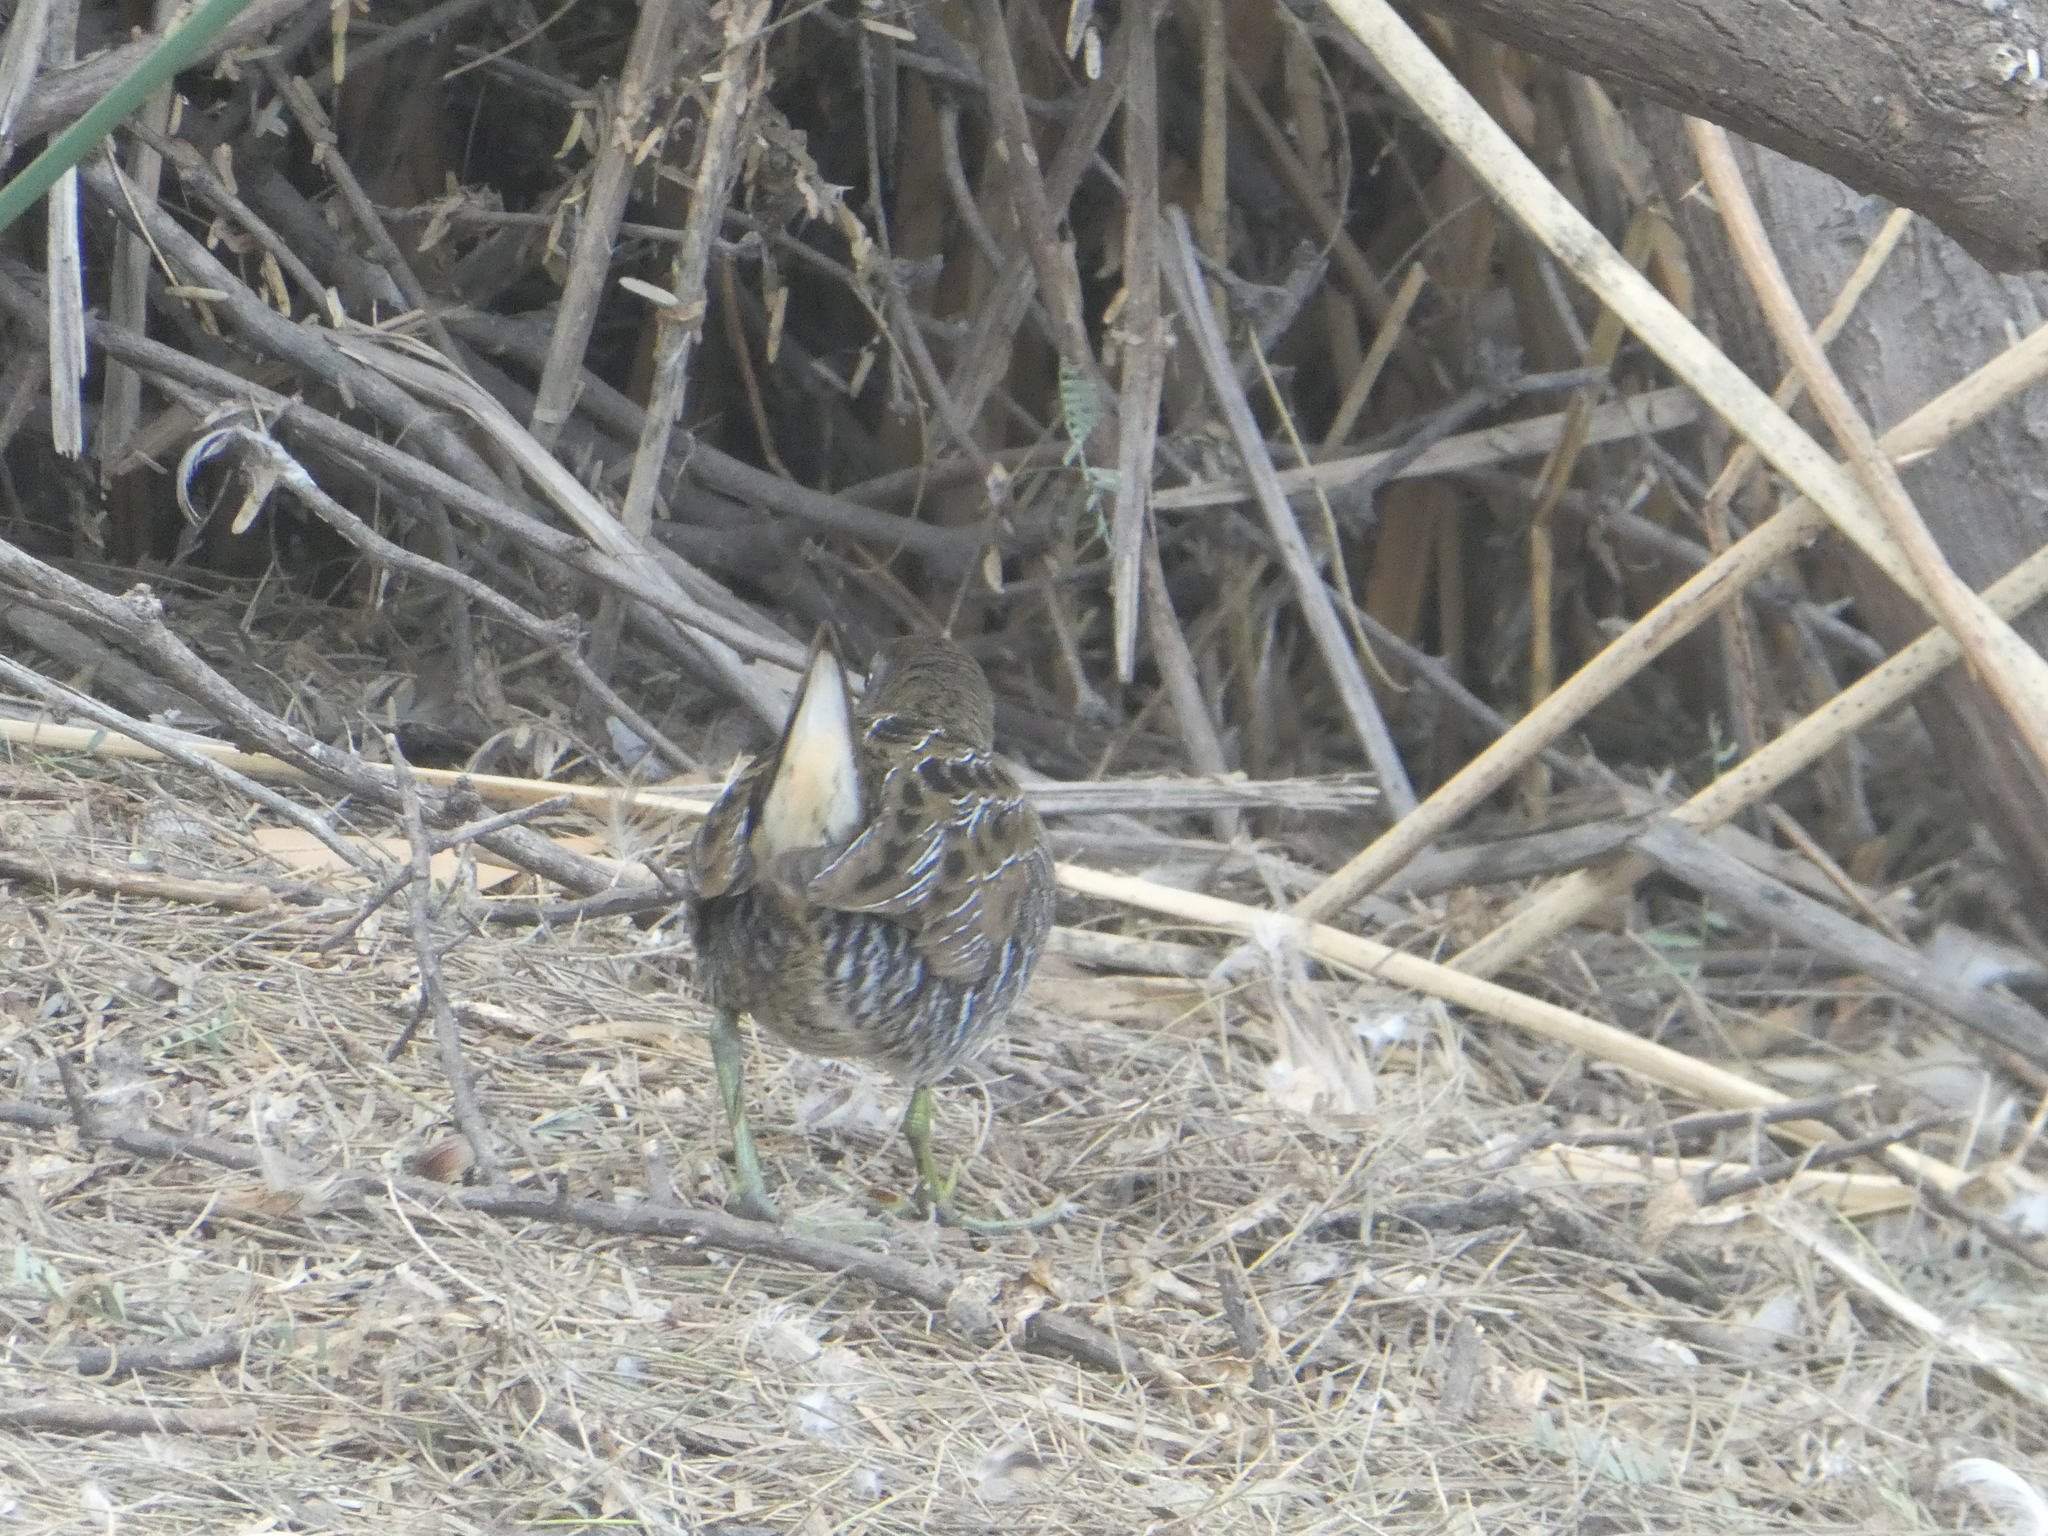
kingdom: Animalia
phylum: Chordata
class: Aves
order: Gruiformes
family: Rallidae
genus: Porzana
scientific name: Porzana carolina
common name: Sora
